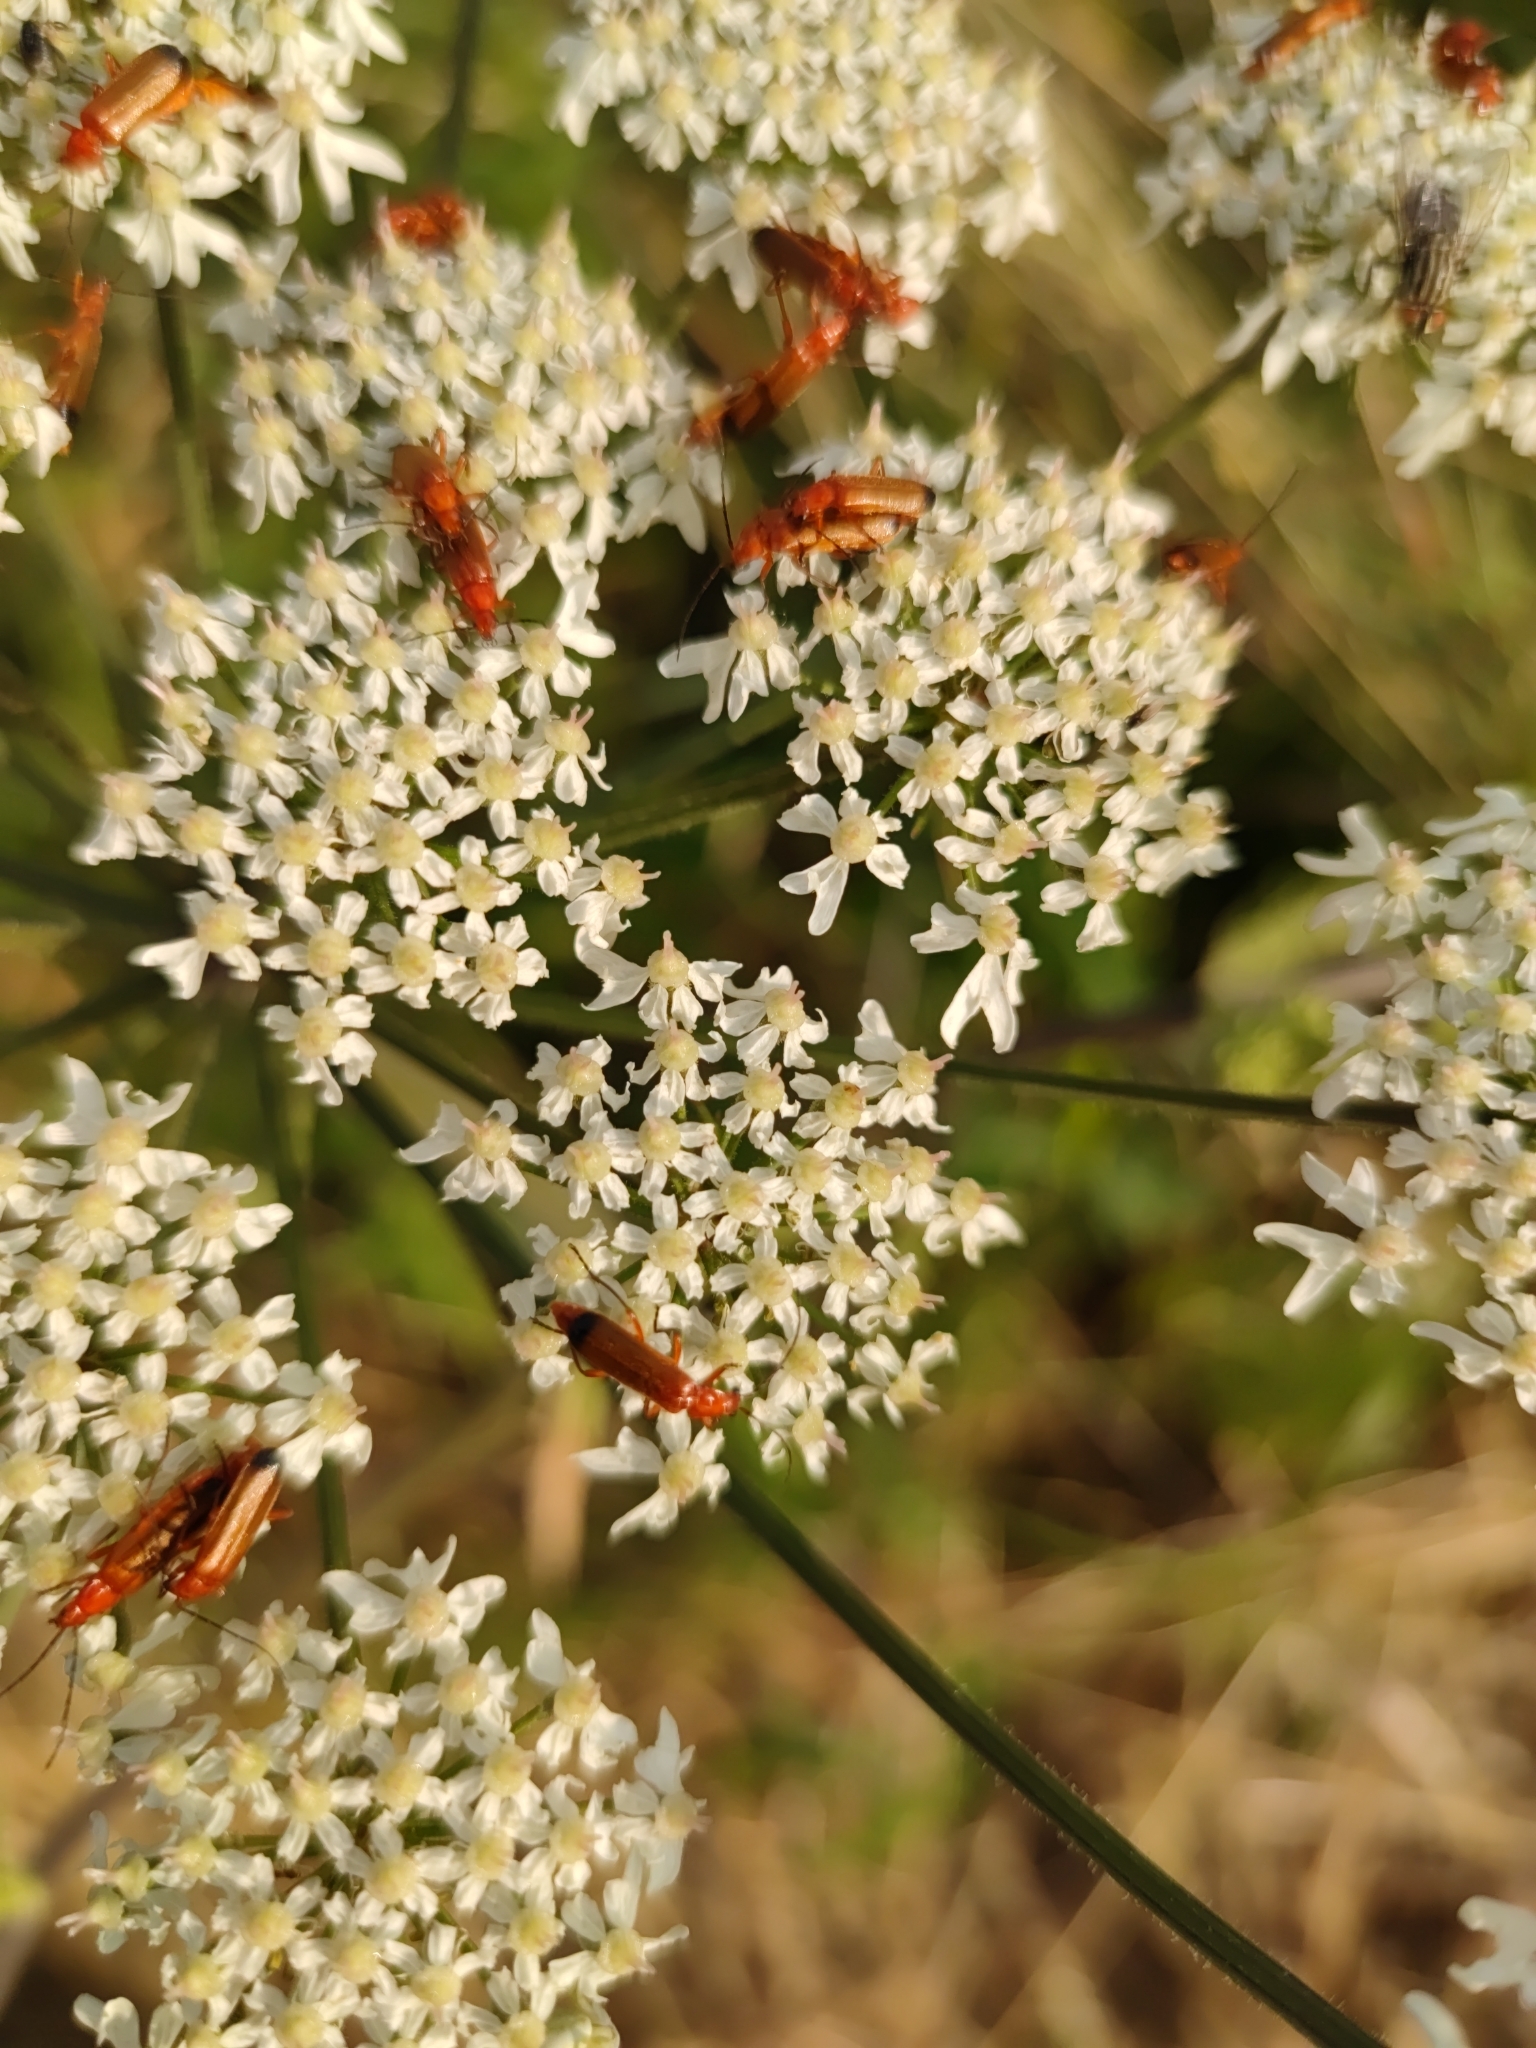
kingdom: Animalia
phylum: Arthropoda
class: Insecta
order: Coleoptera
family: Cantharidae
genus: Rhagonycha
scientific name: Rhagonycha fulva
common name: Common red soldier beetle
